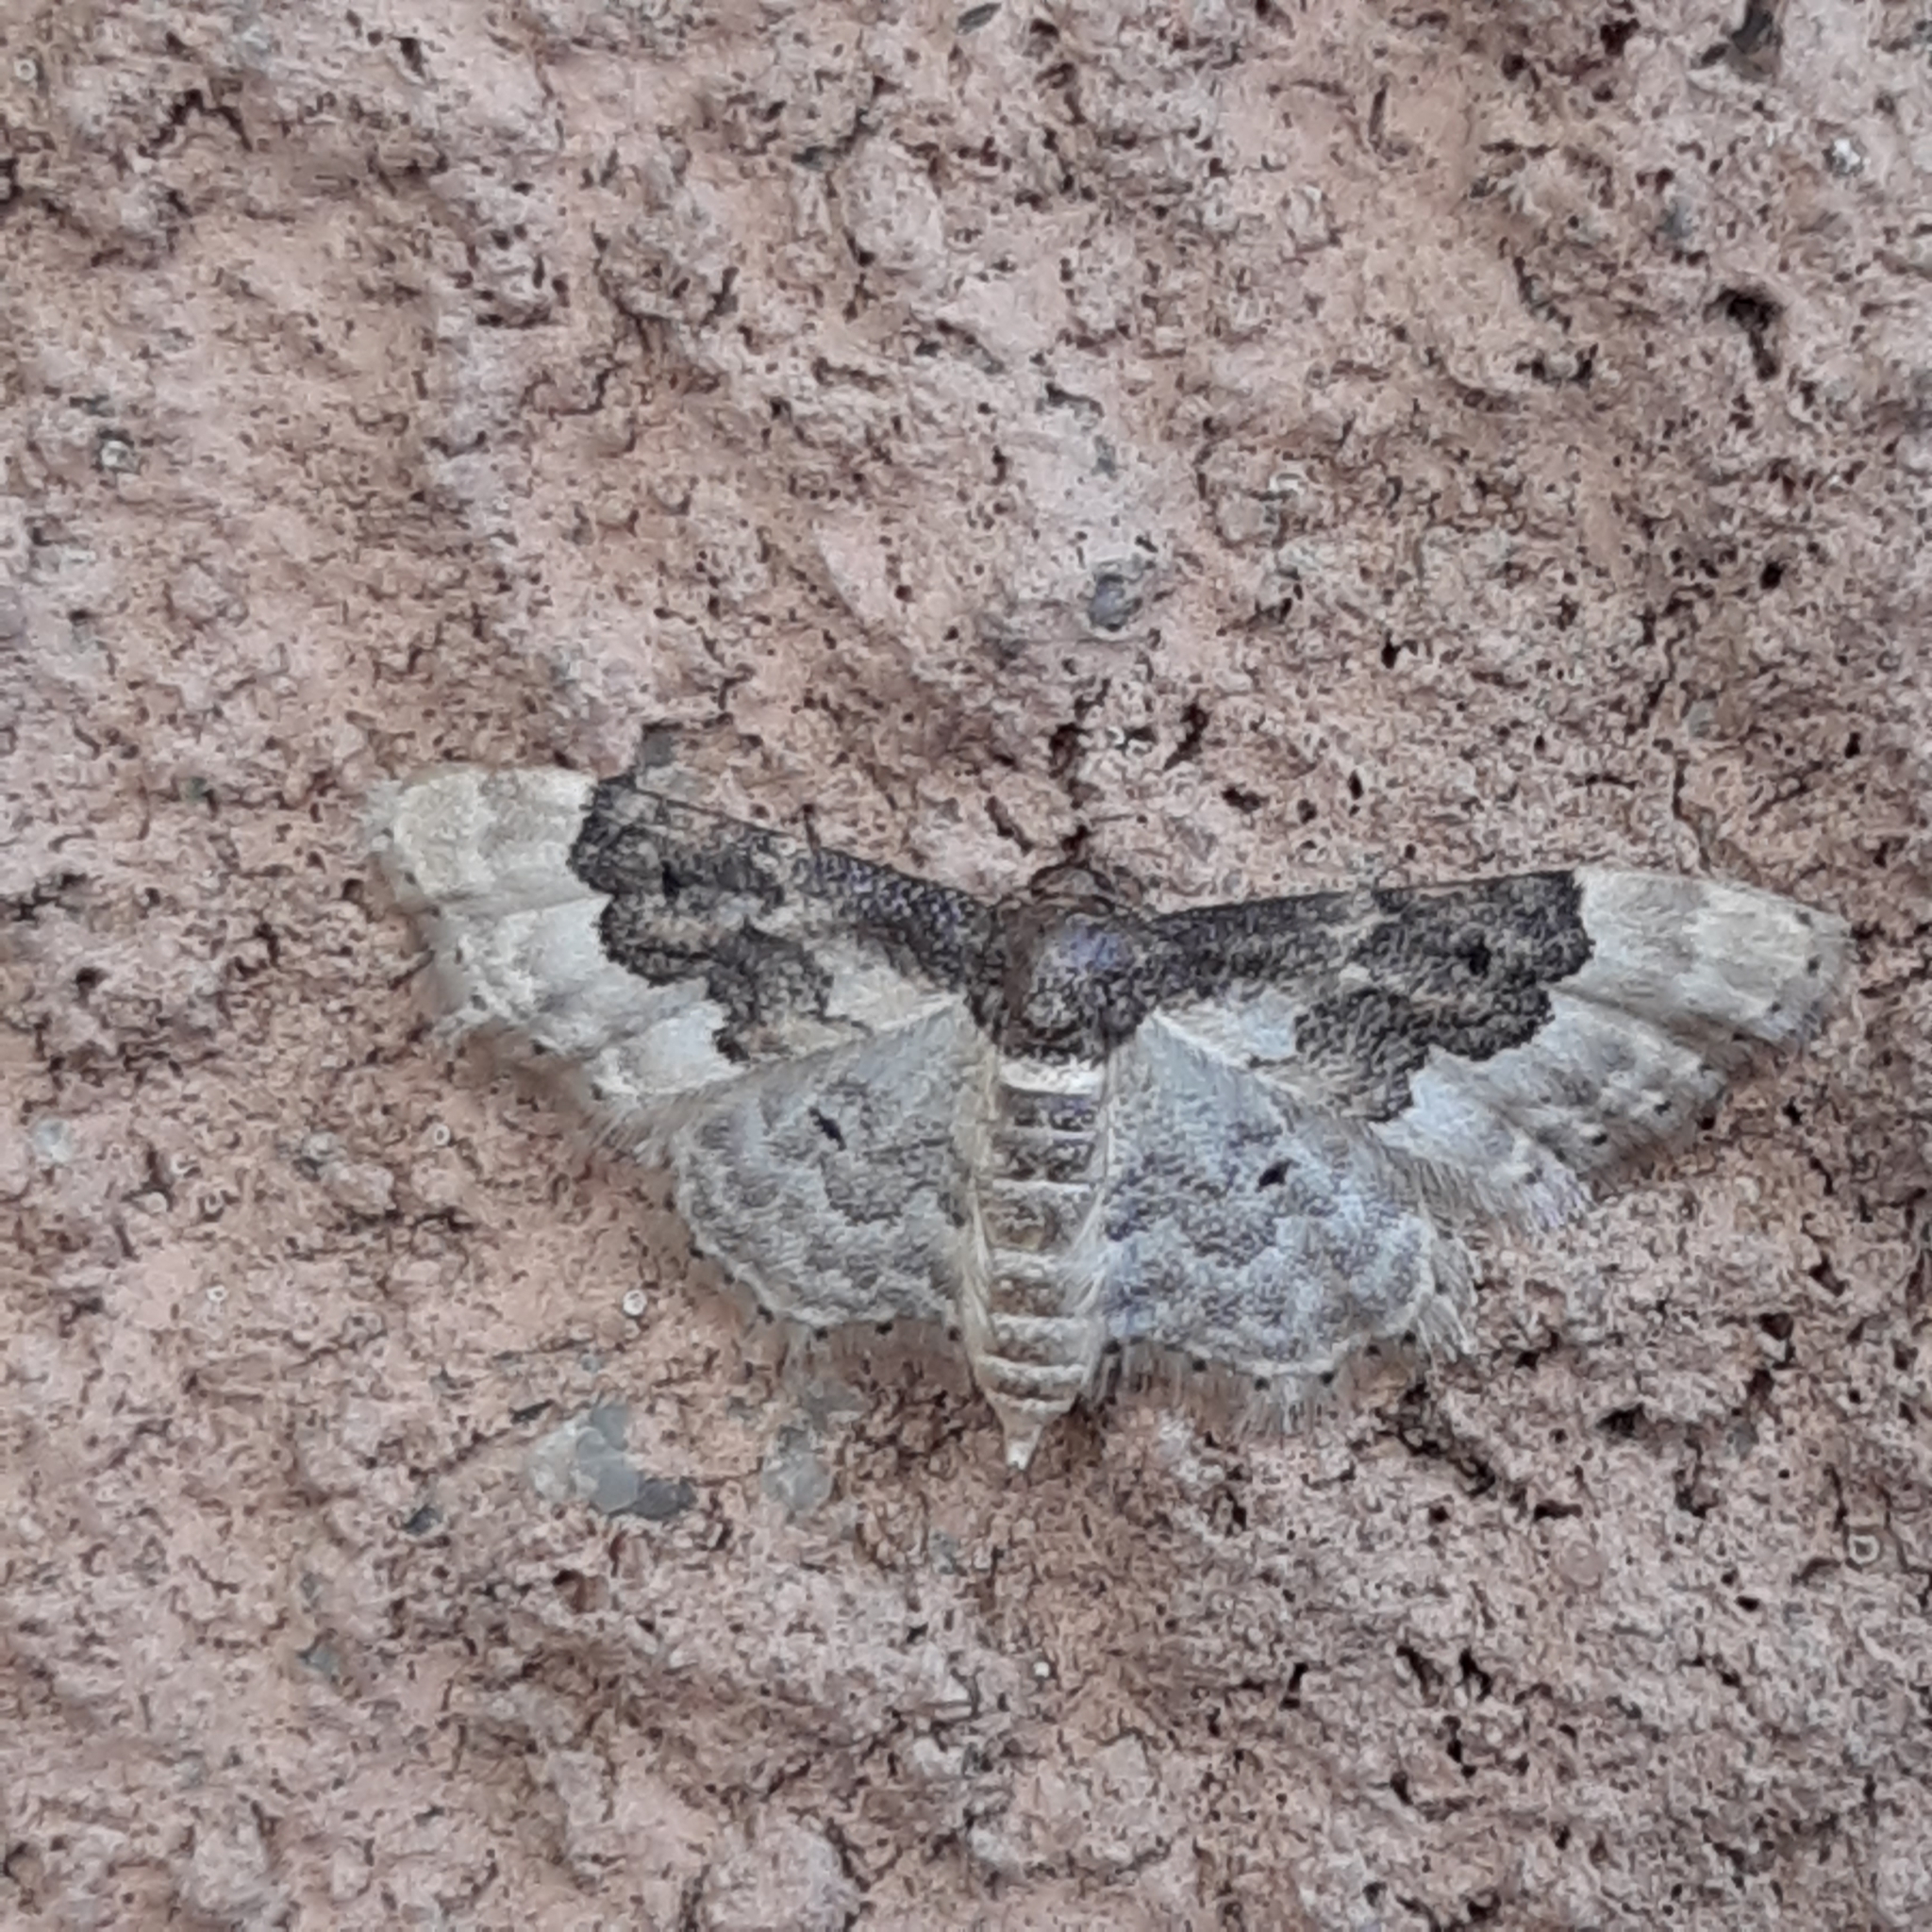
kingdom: Animalia
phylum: Arthropoda
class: Insecta
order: Lepidoptera
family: Geometridae
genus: Idaea
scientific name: Idaea rusticata
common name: Least carpet
